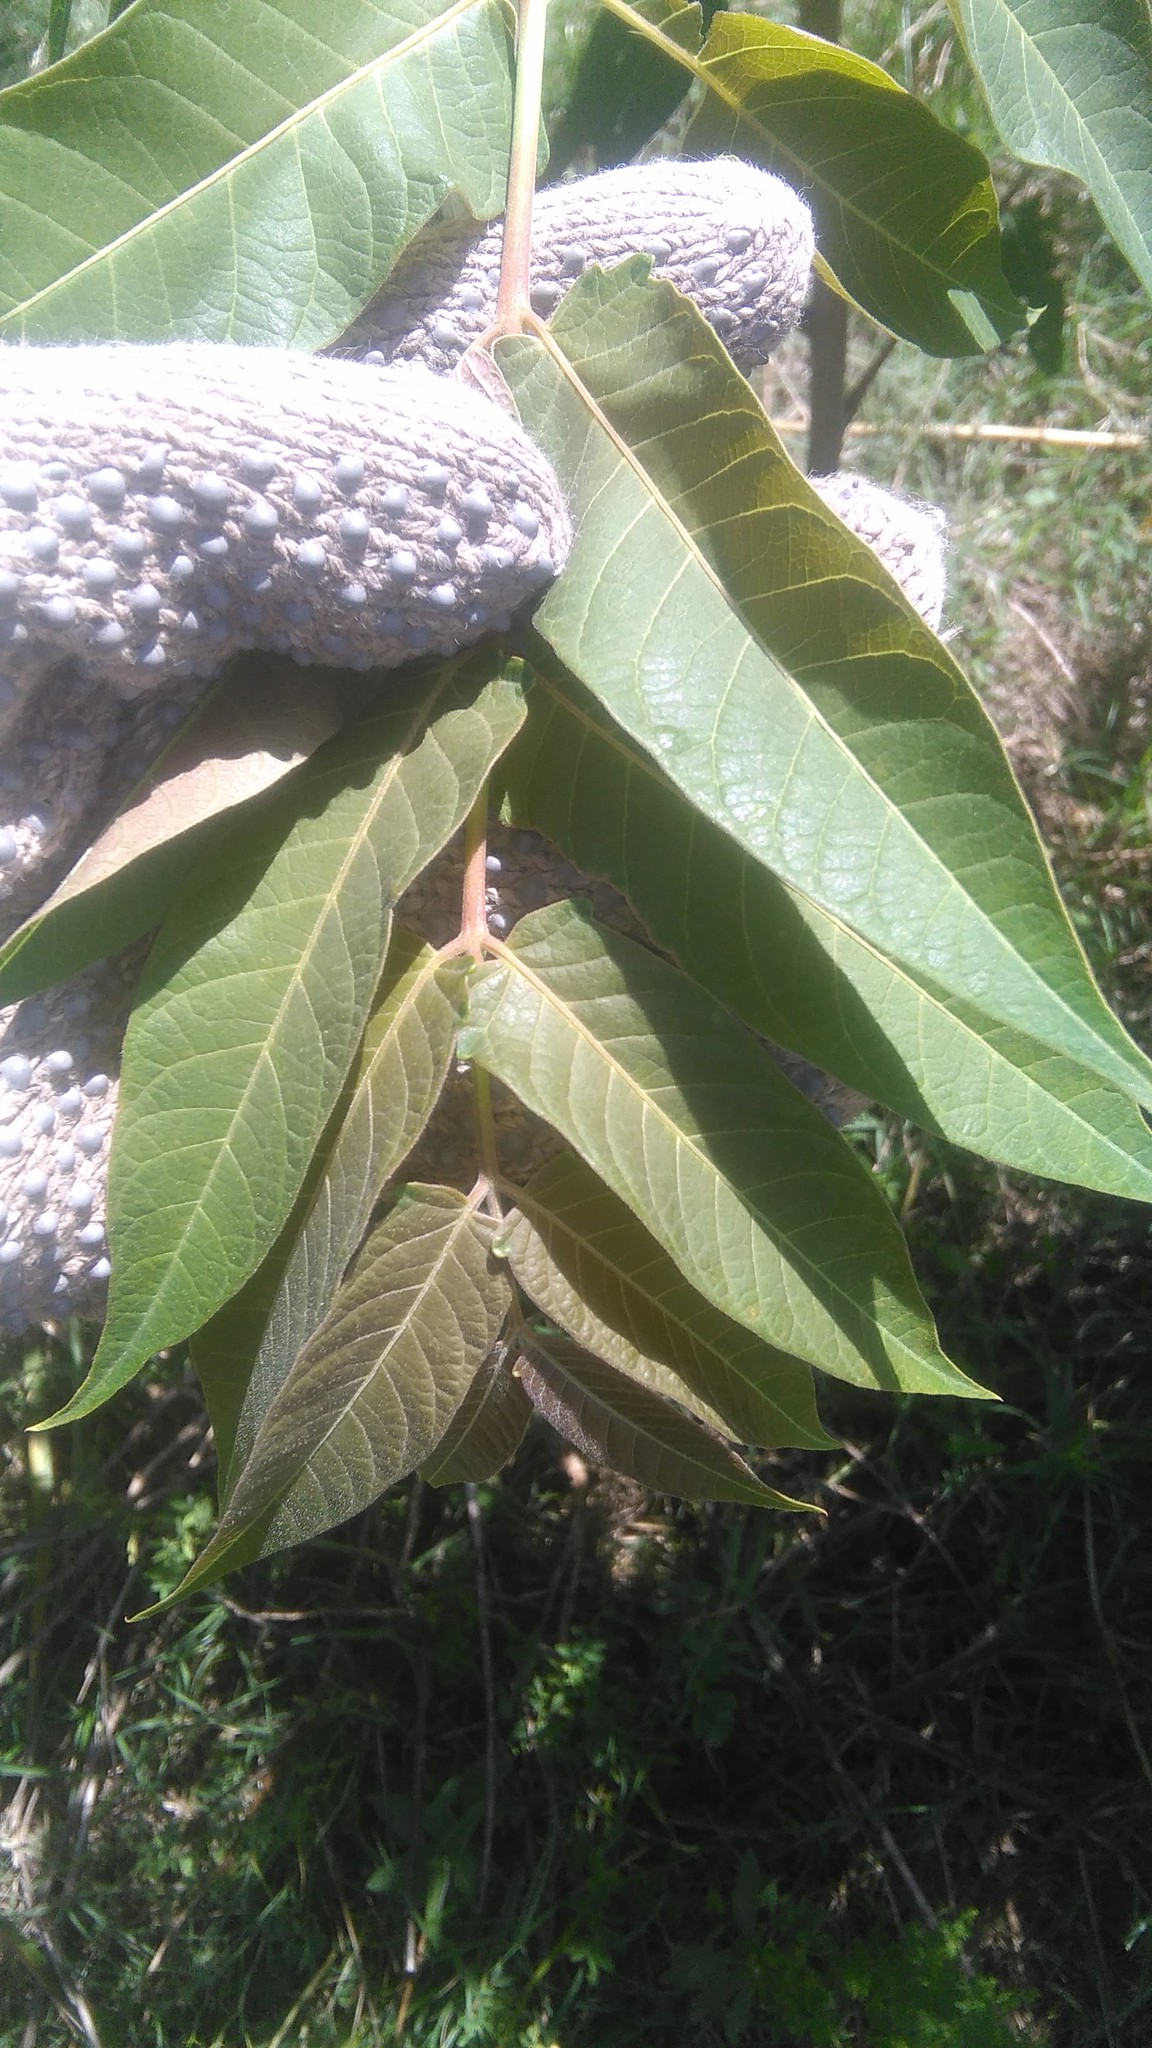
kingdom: Plantae
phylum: Tracheophyta
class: Magnoliopsida
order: Sapindales
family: Simaroubaceae
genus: Ailanthus
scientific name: Ailanthus altissima
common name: Tree-of-heaven
